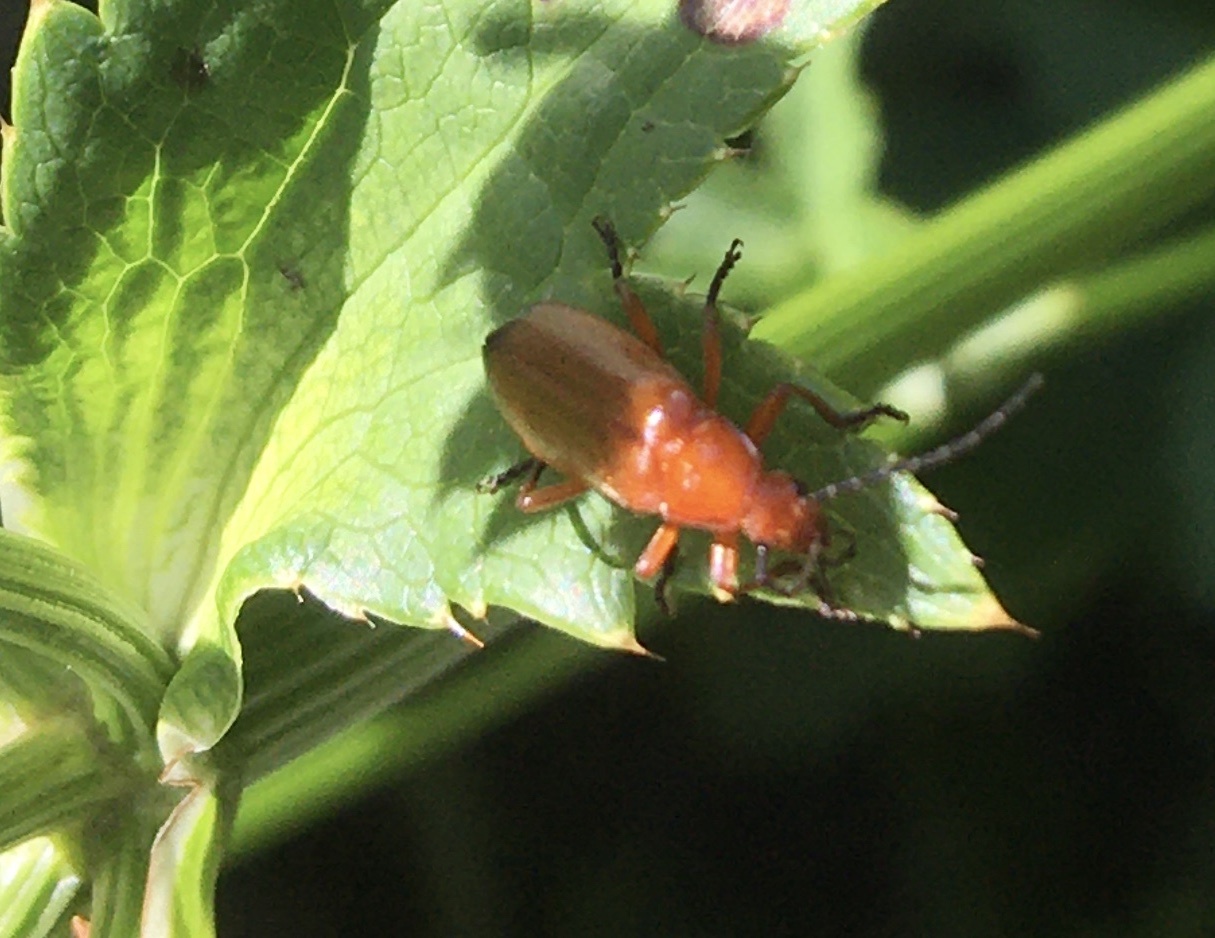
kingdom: Animalia
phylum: Arthropoda
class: Insecta
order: Coleoptera
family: Cantharidae
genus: Rhagonycha
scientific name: Rhagonycha fulva
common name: Common red soldier beetle
